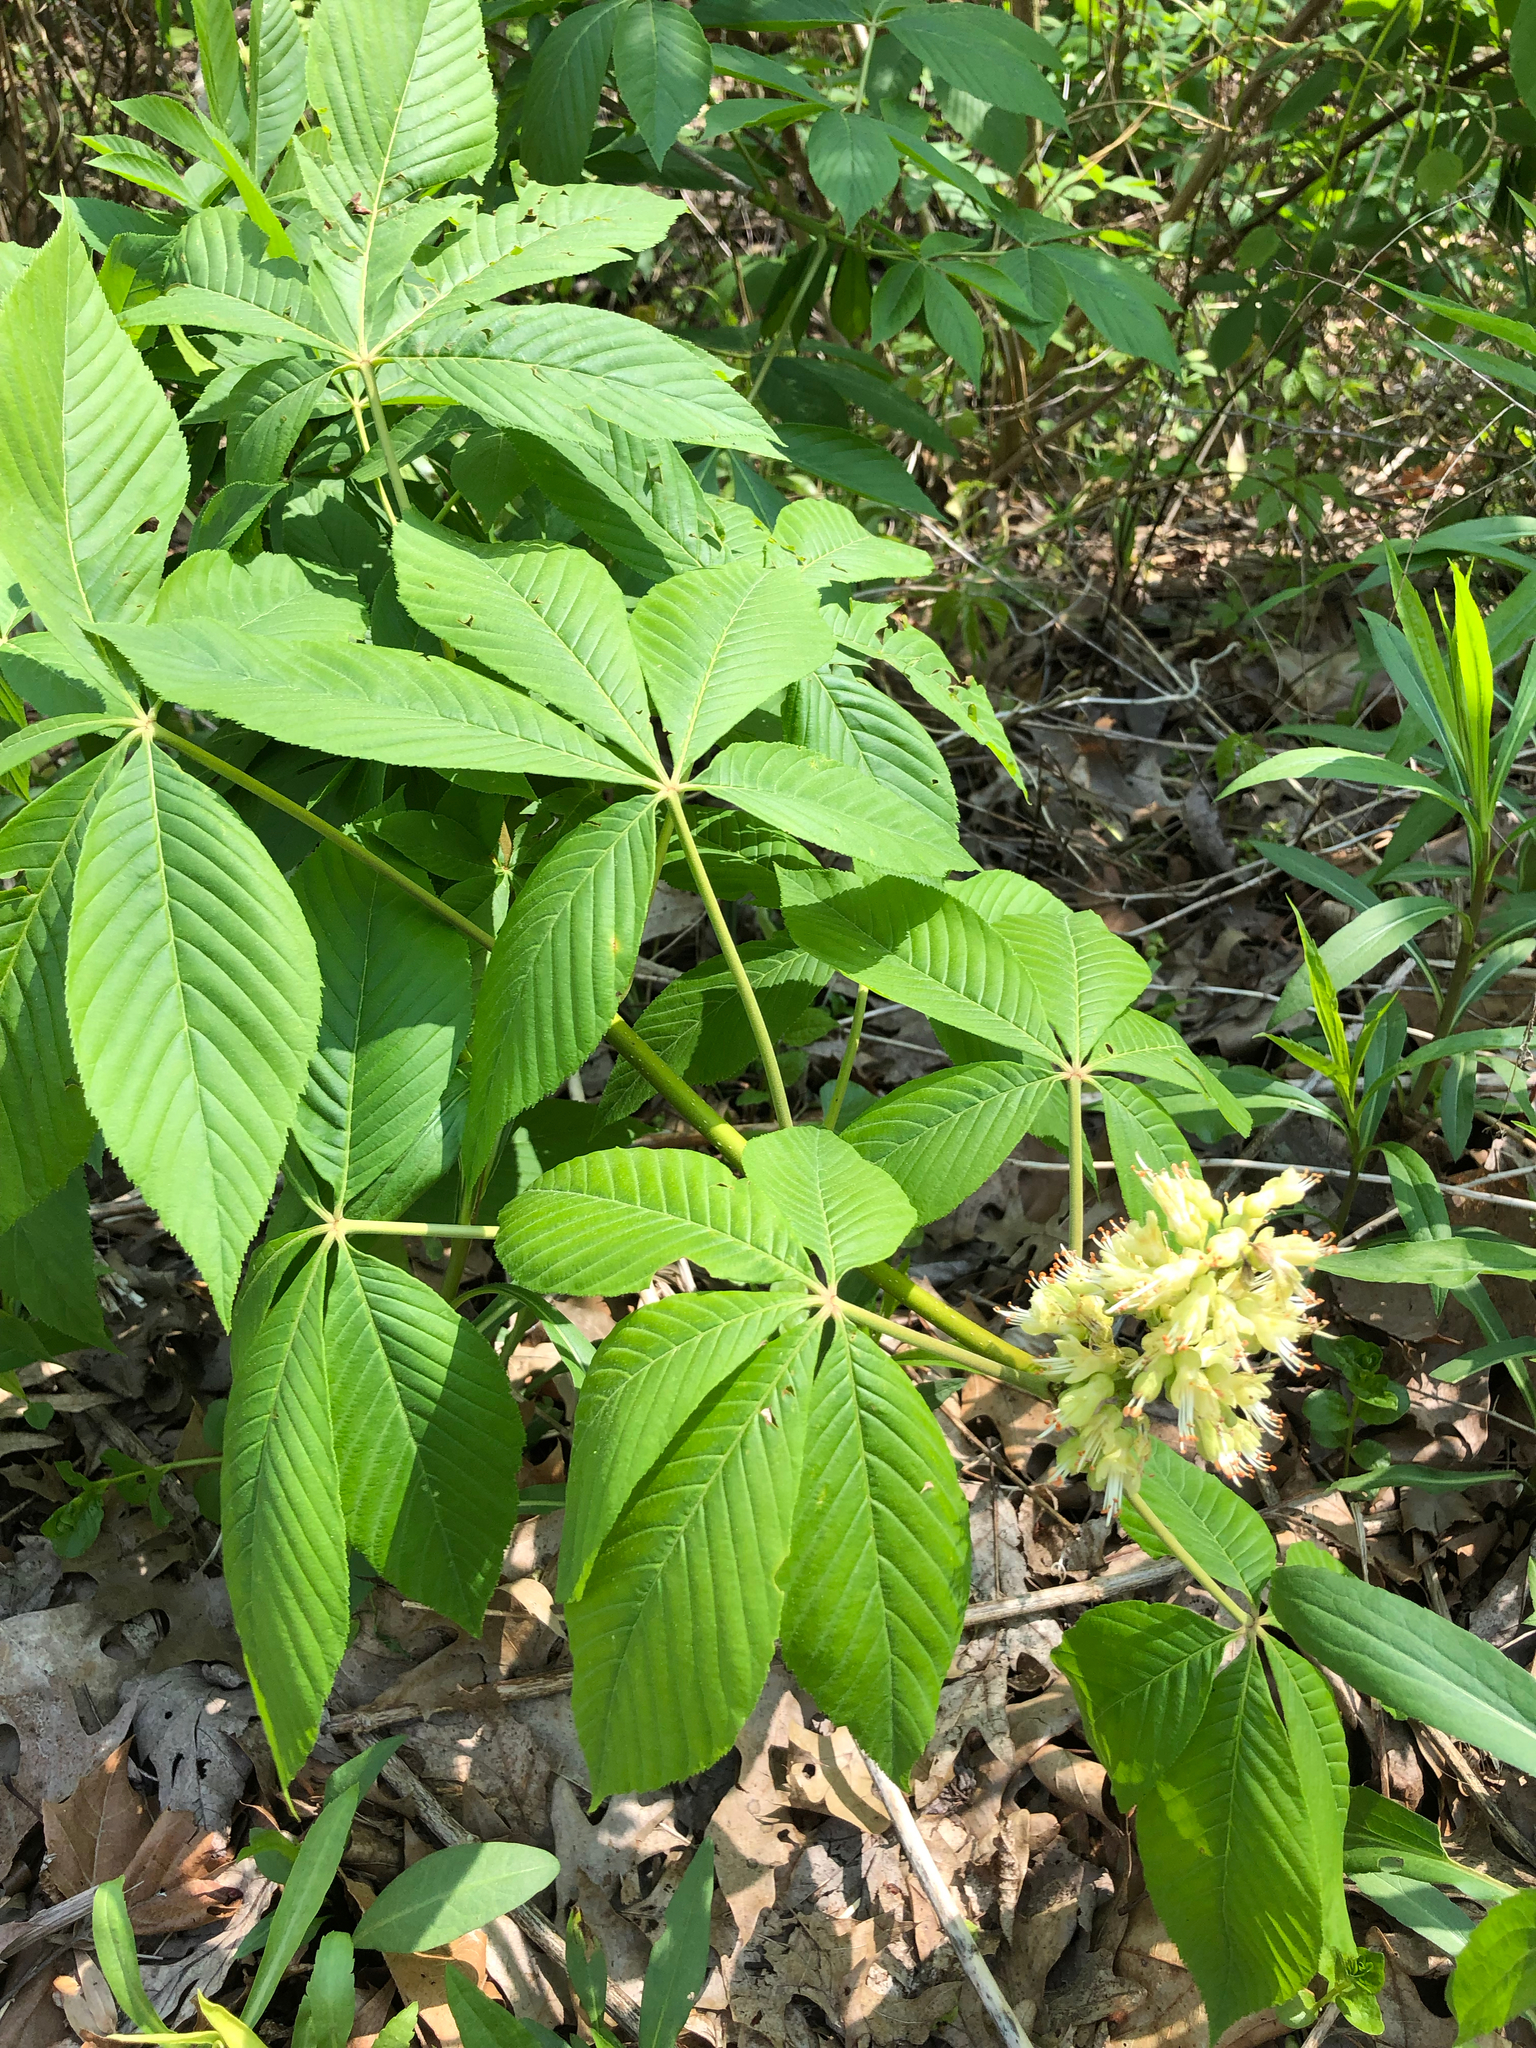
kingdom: Plantae
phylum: Tracheophyta
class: Magnoliopsida
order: Sapindales
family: Sapindaceae
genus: Aesculus
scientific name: Aesculus glabra
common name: Ohio buckeye
